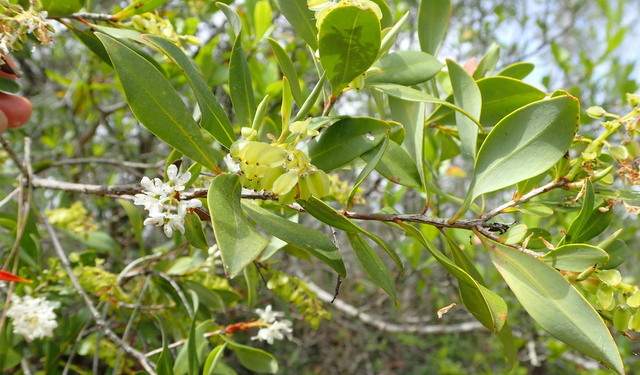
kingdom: Plantae
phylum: Tracheophyta
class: Magnoliopsida
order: Ericales
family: Cyrillaceae
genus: Cliftonia
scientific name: Cliftonia monophylla
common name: Titi
